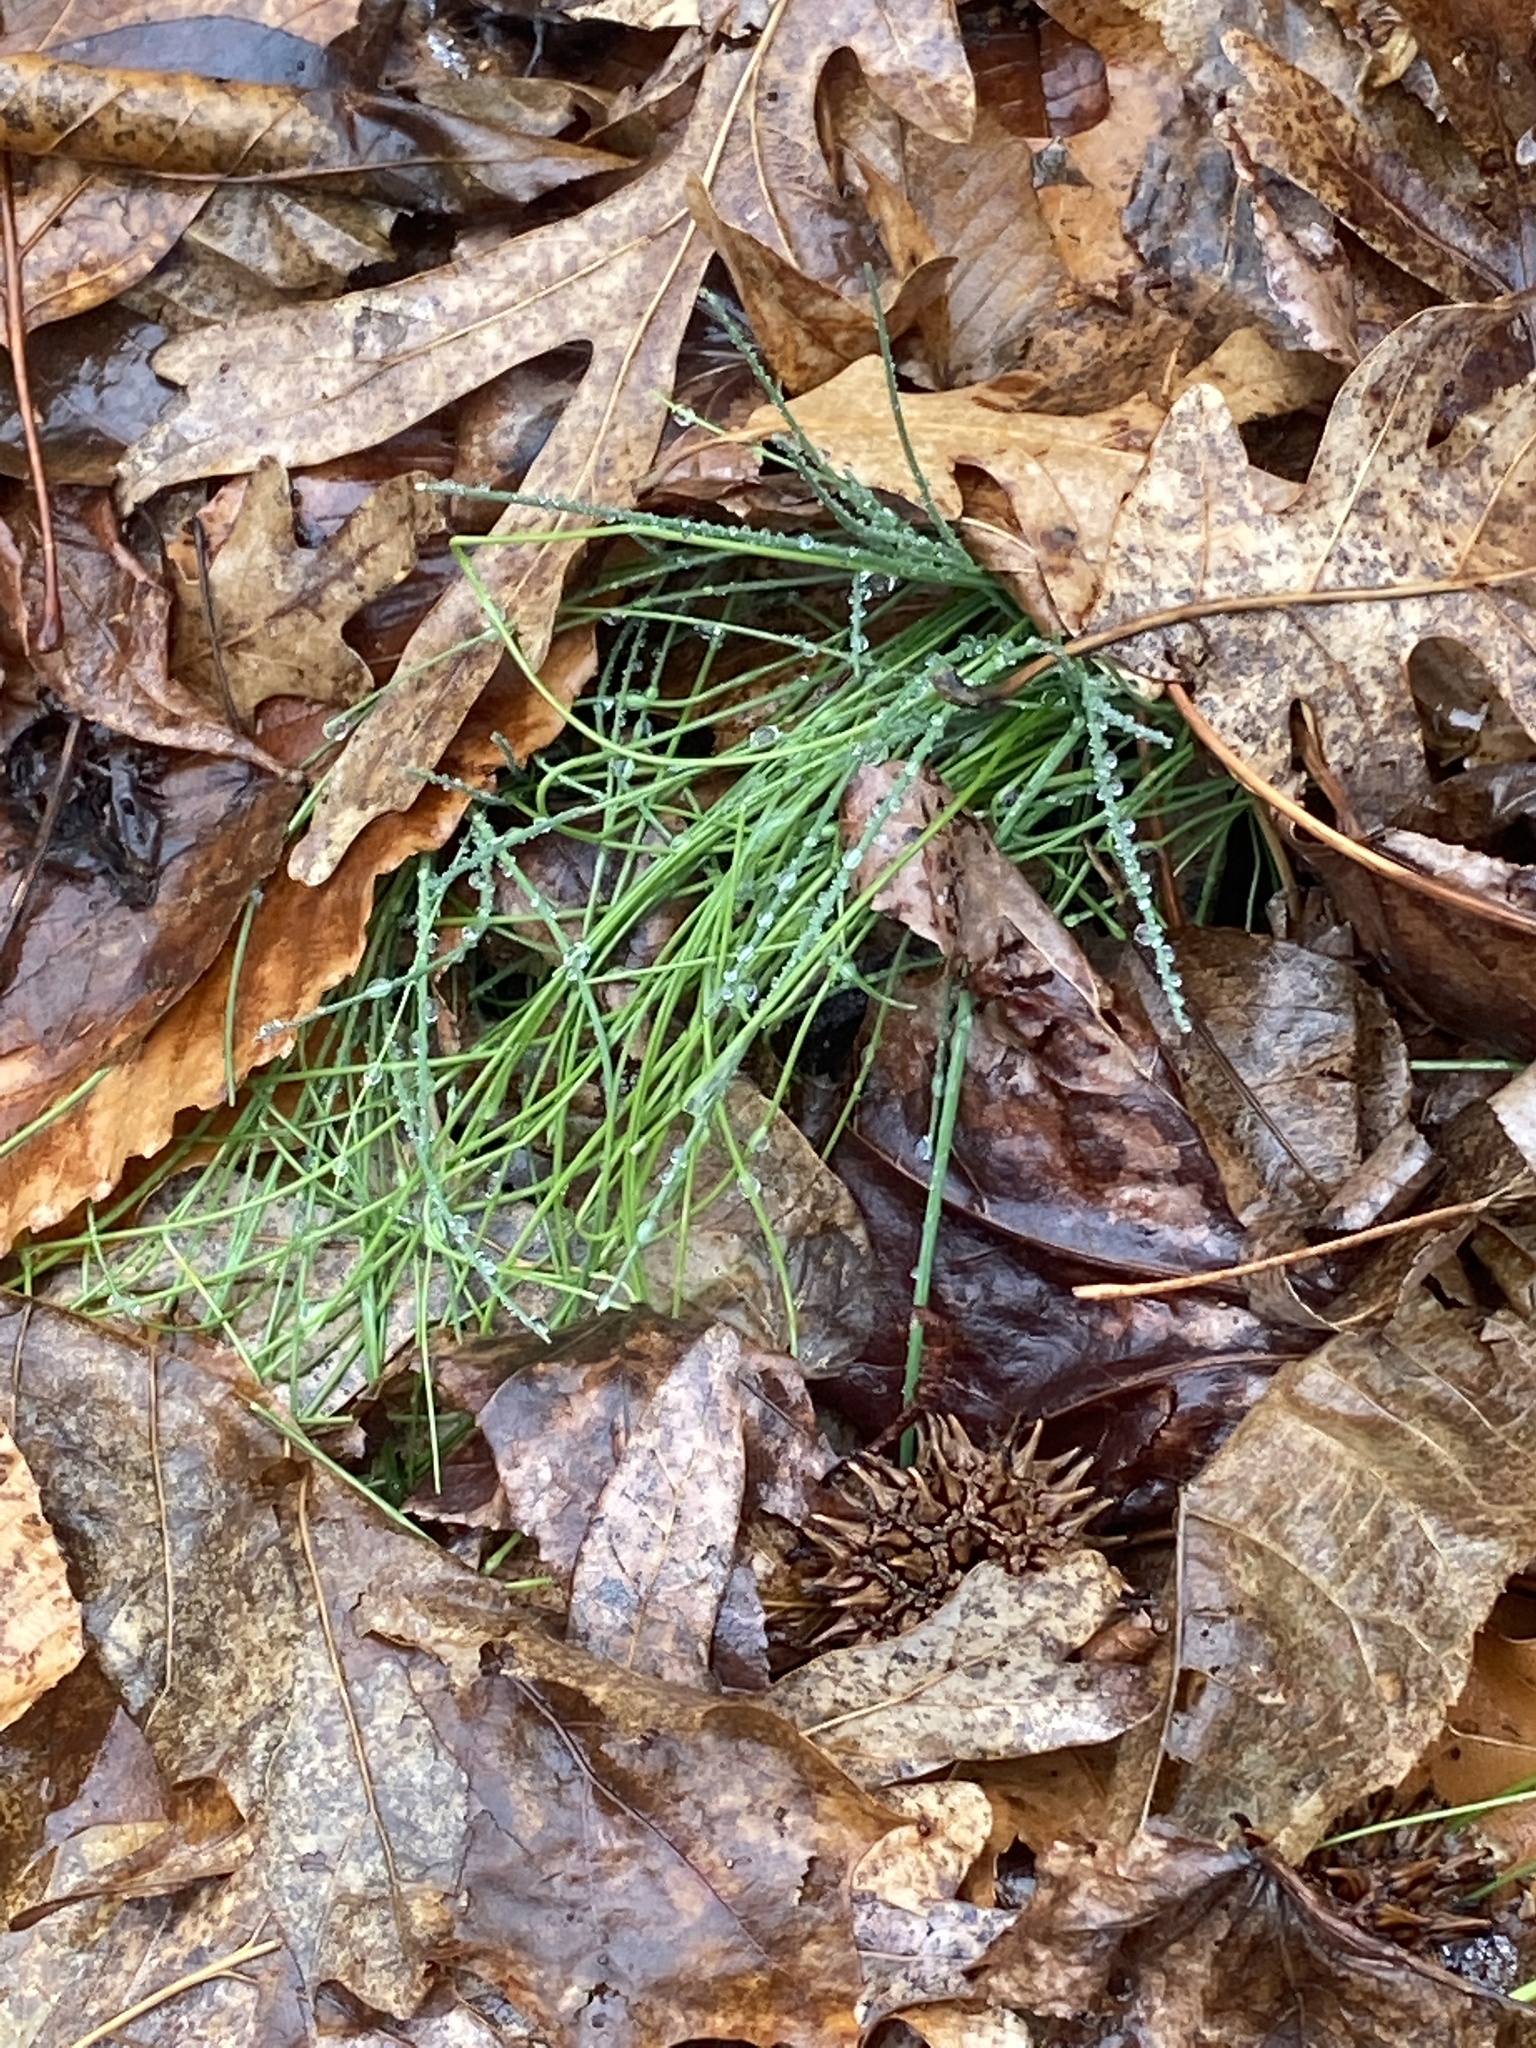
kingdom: Plantae
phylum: Tracheophyta
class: Liliopsida
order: Asparagales
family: Amaryllidaceae
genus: Allium
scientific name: Allium vineale
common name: Crow garlic
